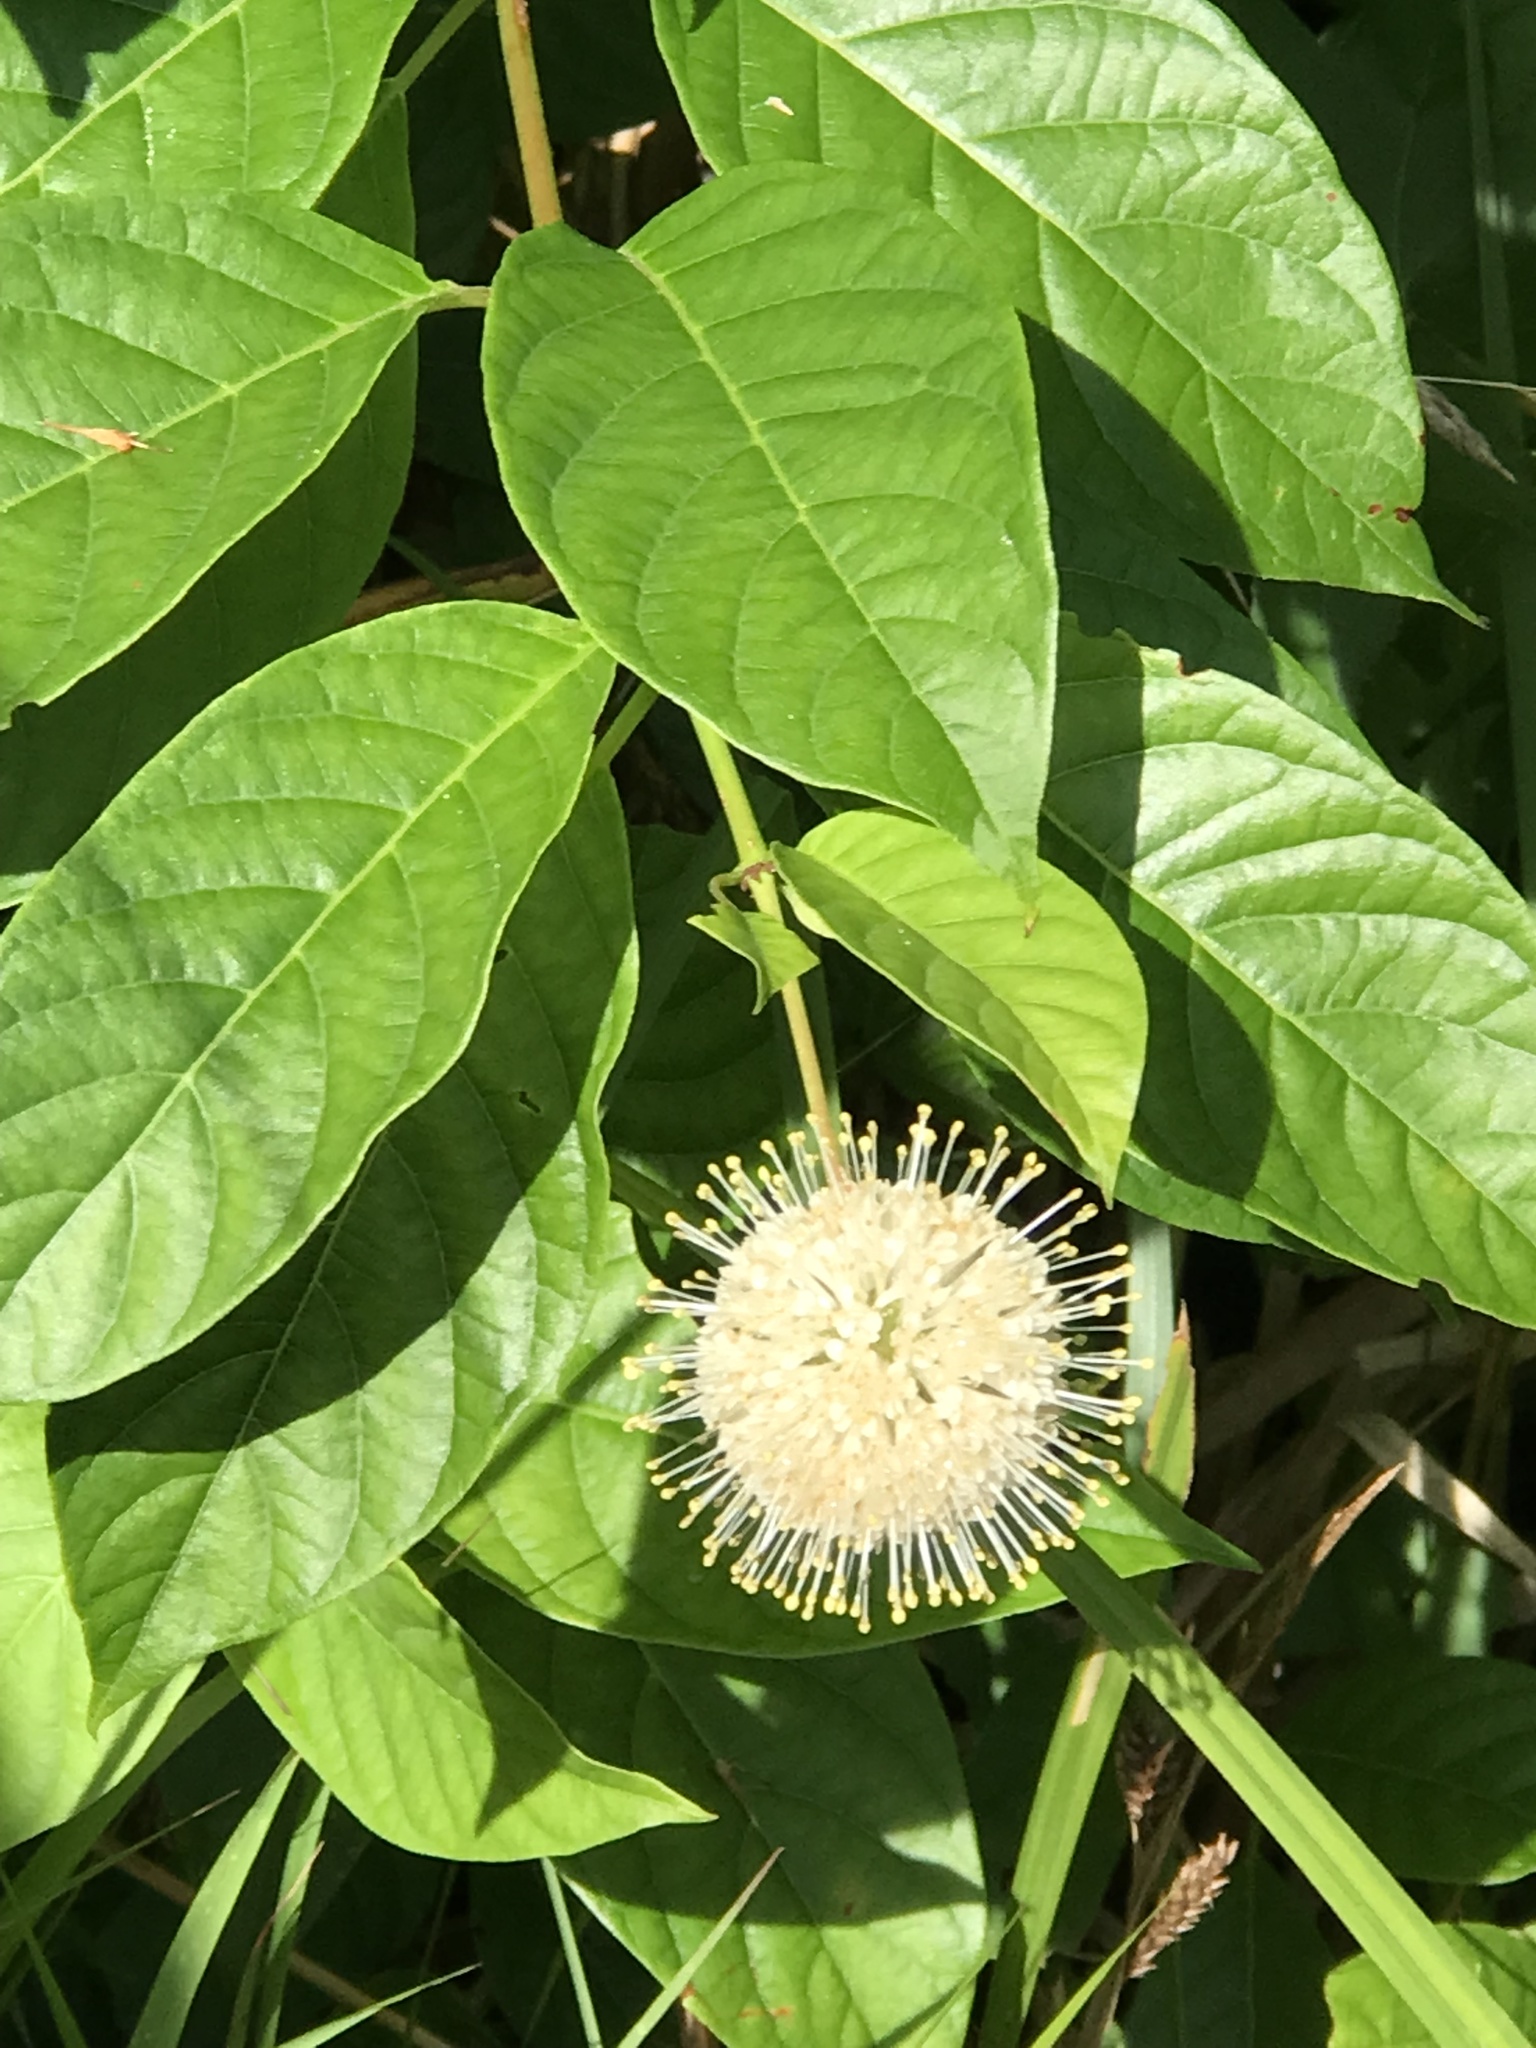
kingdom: Plantae
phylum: Tracheophyta
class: Magnoliopsida
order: Gentianales
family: Rubiaceae
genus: Cephalanthus
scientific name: Cephalanthus occidentalis
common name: Button-willow
